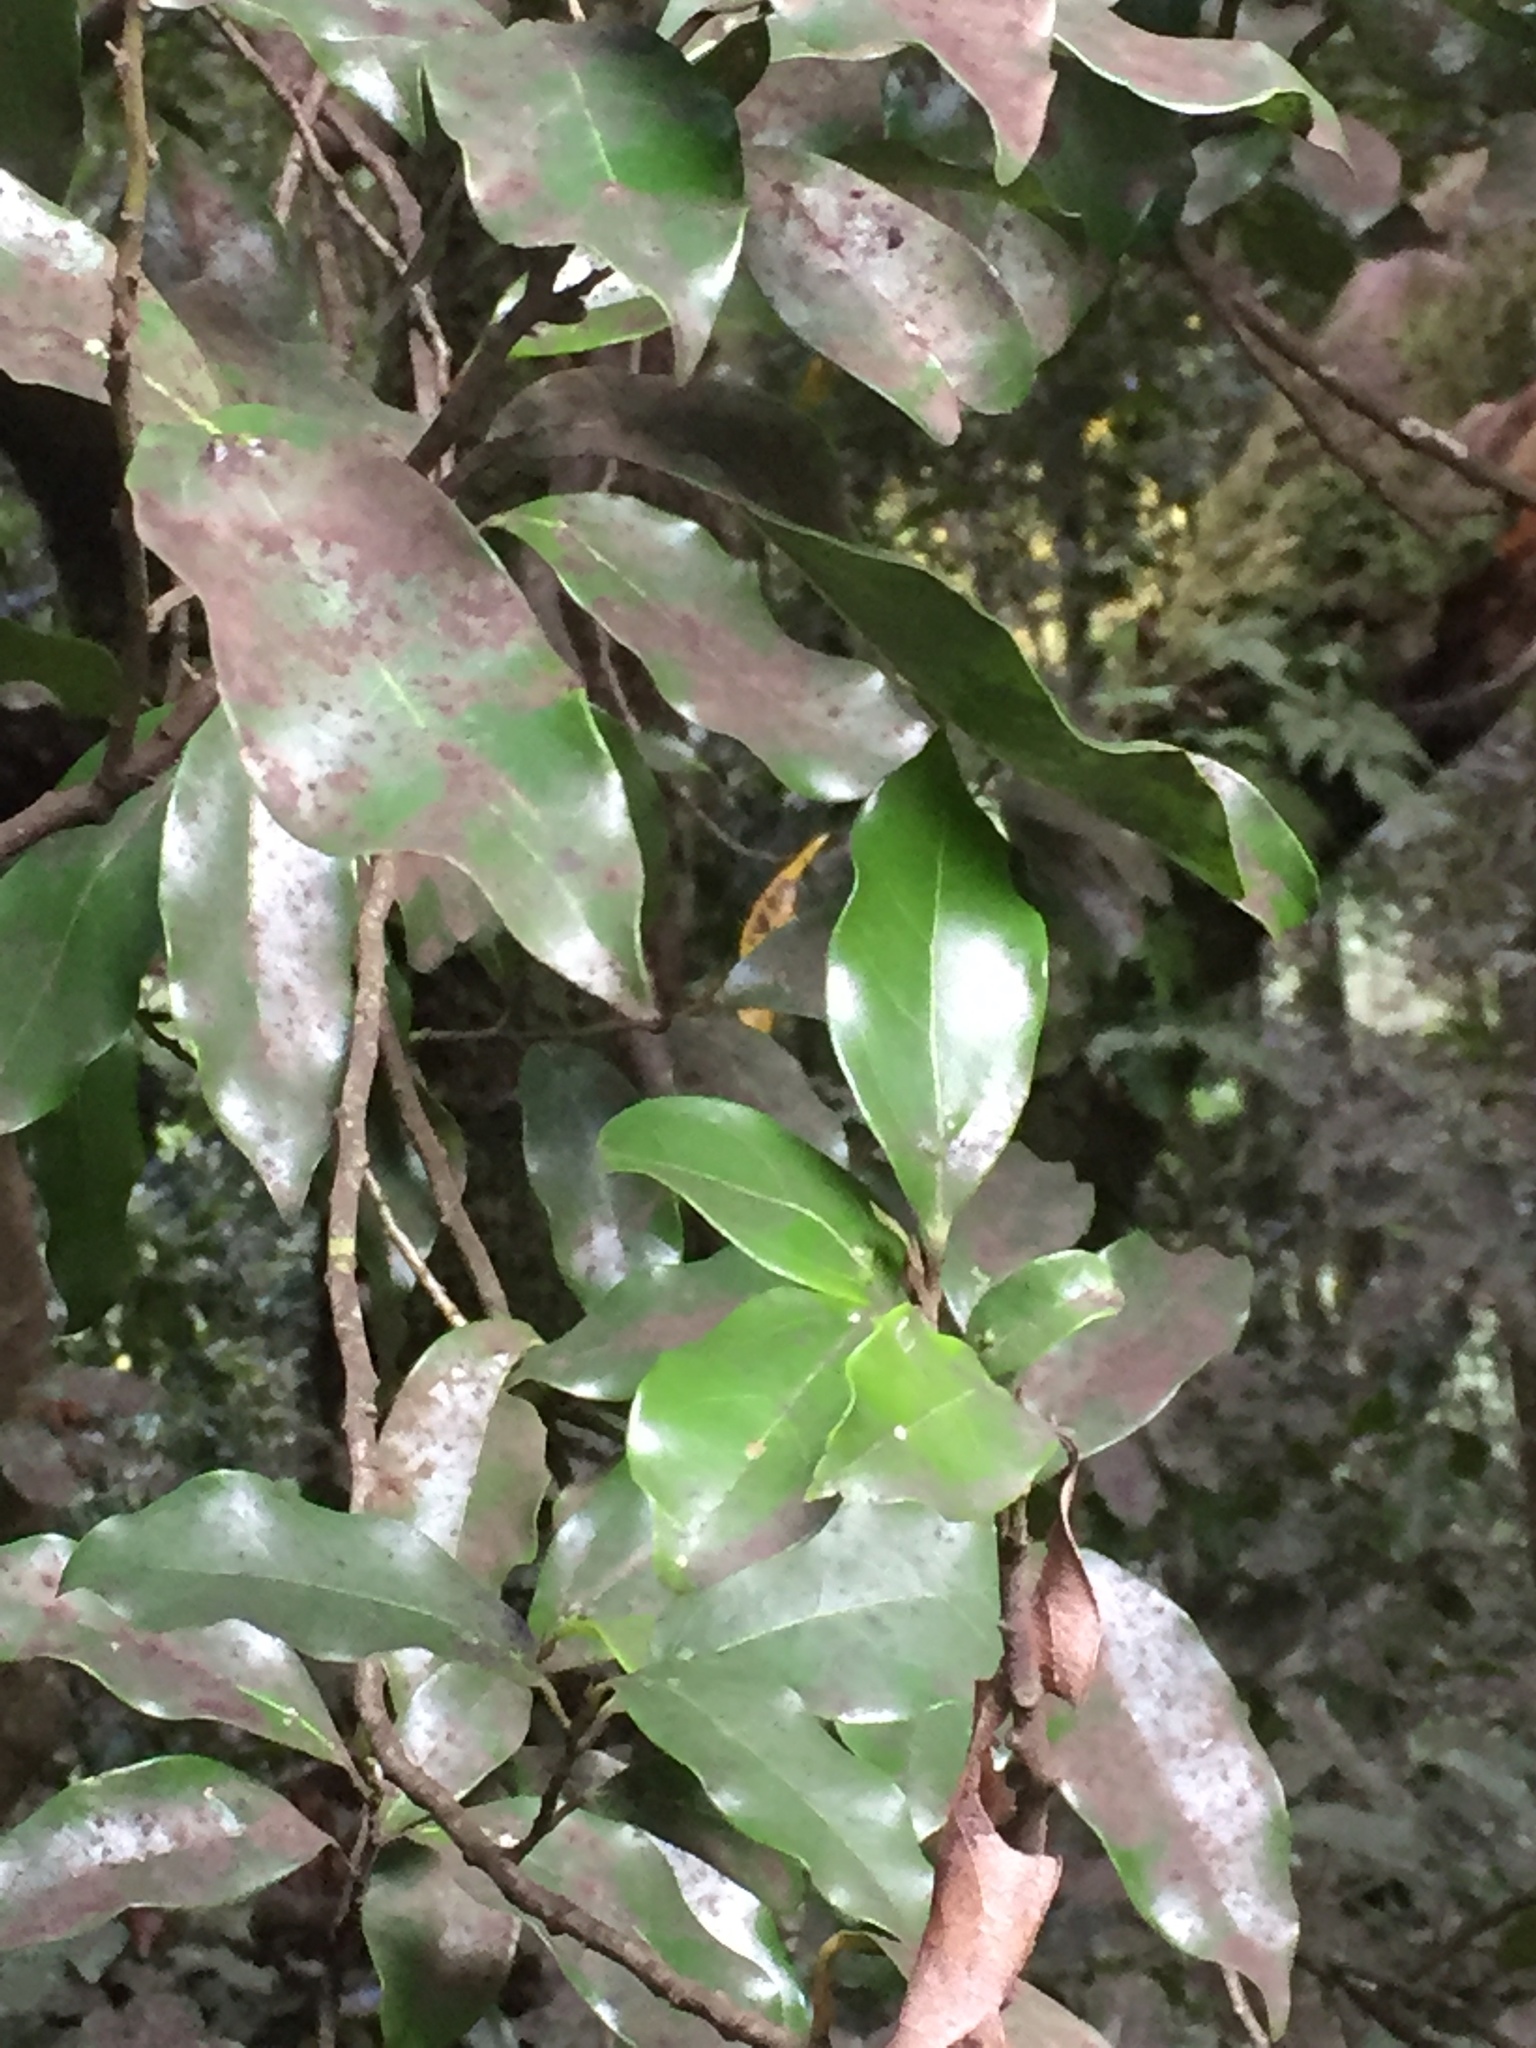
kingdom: Plantae
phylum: Tracheophyta
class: Magnoliopsida
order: Laurales
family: Lauraceae
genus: Mespilodaphne
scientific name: Mespilodaphne foetens
